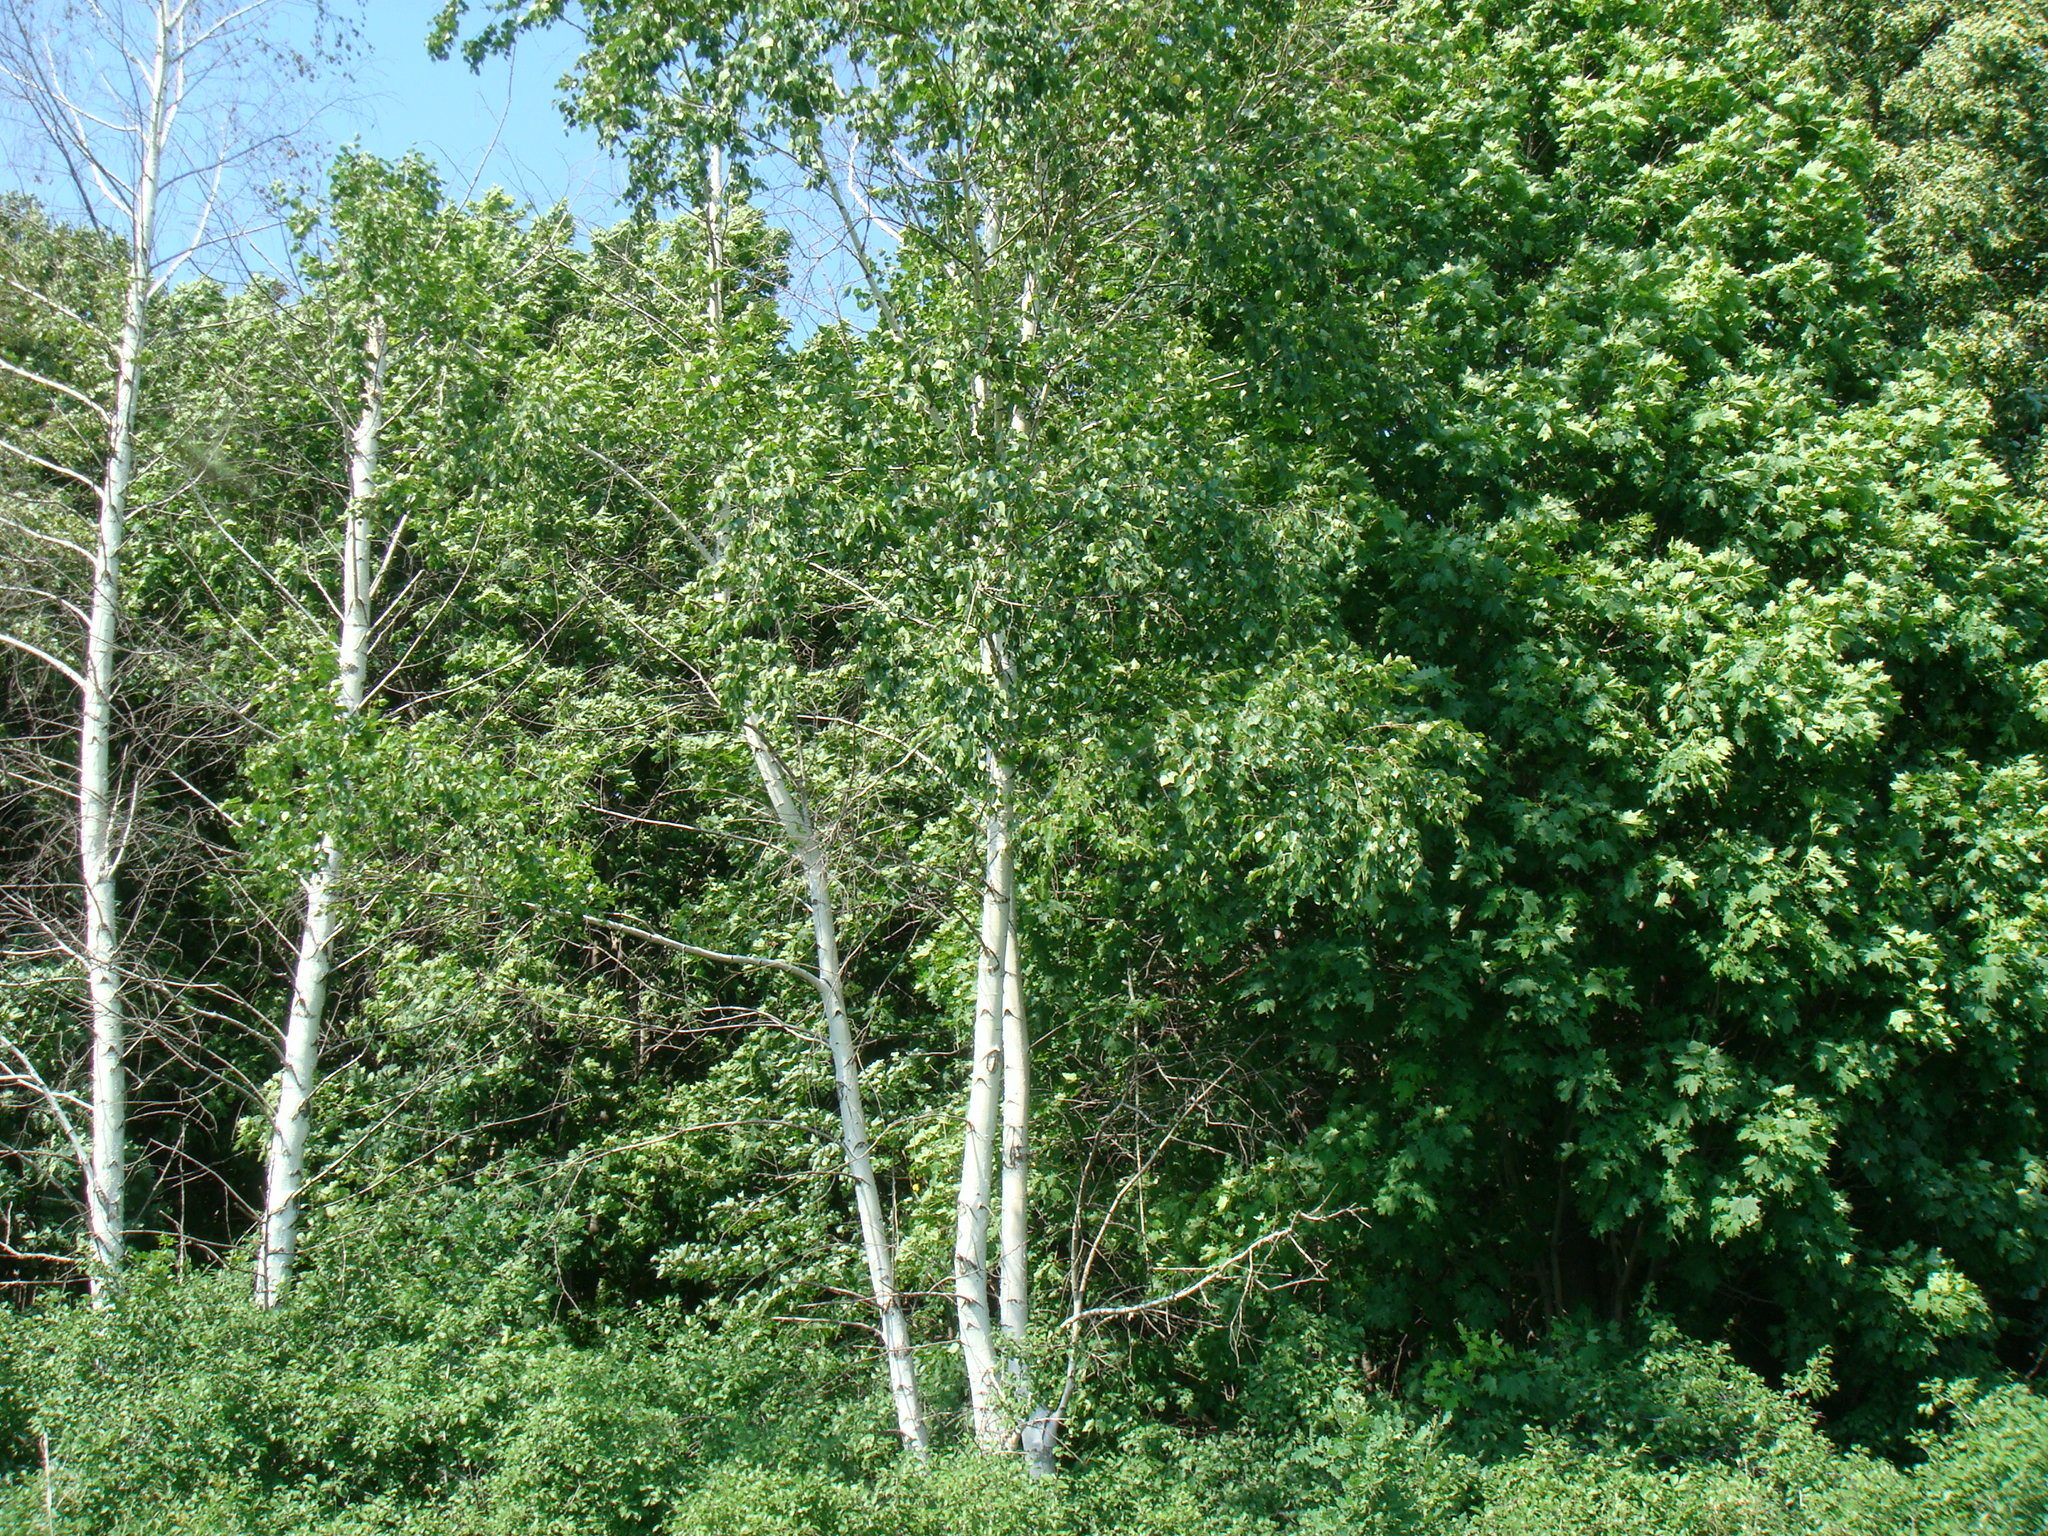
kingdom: Plantae
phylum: Tracheophyta
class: Magnoliopsida
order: Fagales
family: Betulaceae
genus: Betula
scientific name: Betula pendula
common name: Silver birch
